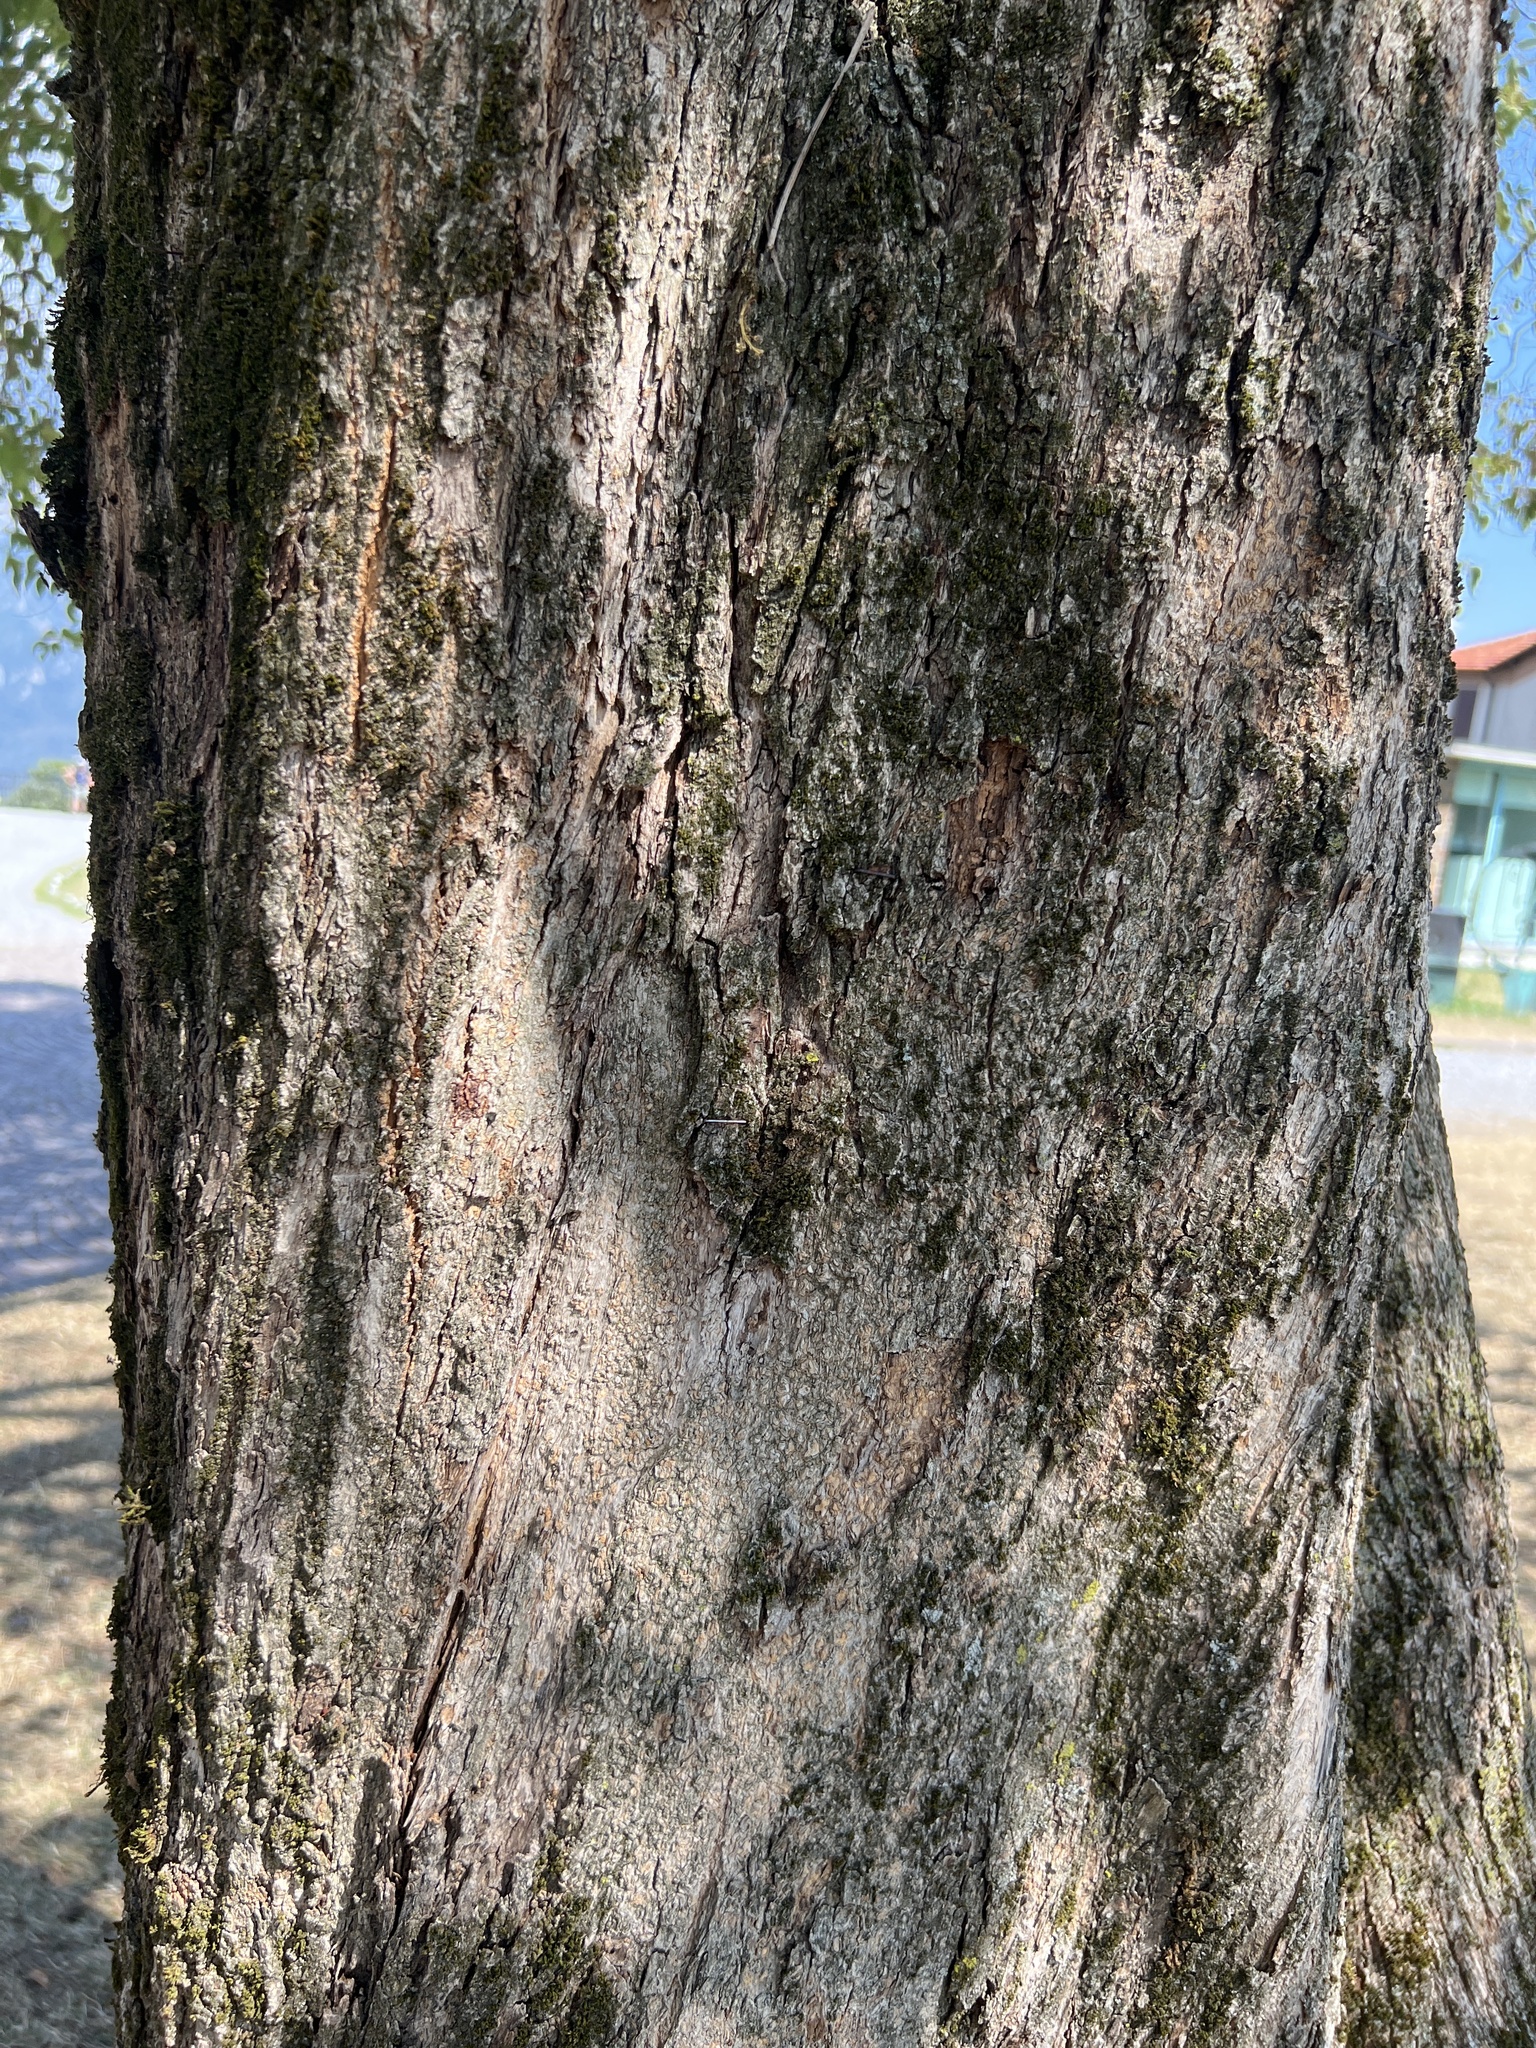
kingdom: Plantae
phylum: Tracheophyta
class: Magnoliopsida
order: Lamiales
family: Oleaceae
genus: Ligustrum
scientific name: Ligustrum lucidum
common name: Glossy privet
